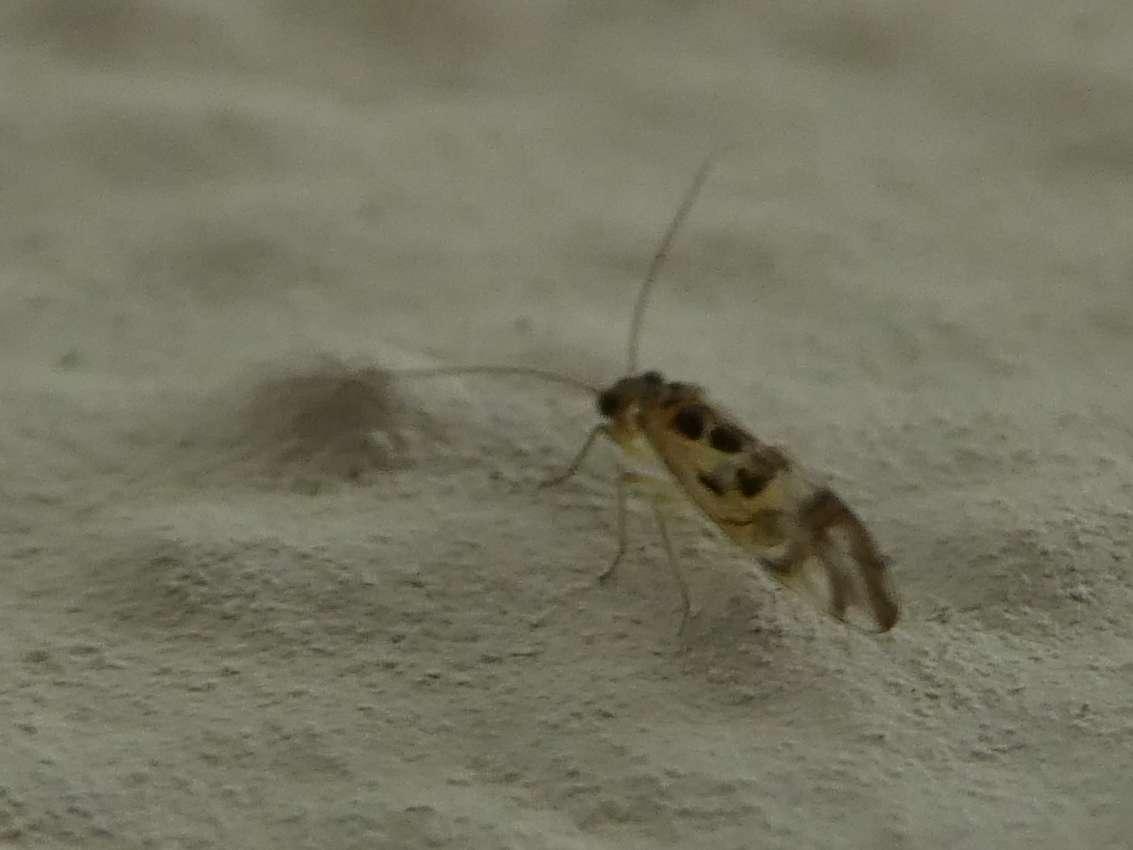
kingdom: Animalia
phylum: Arthropoda
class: Insecta
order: Psocodea
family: Stenopsocidae
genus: Graphopsocus
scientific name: Graphopsocus cruciatus
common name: Lizard bark louse
